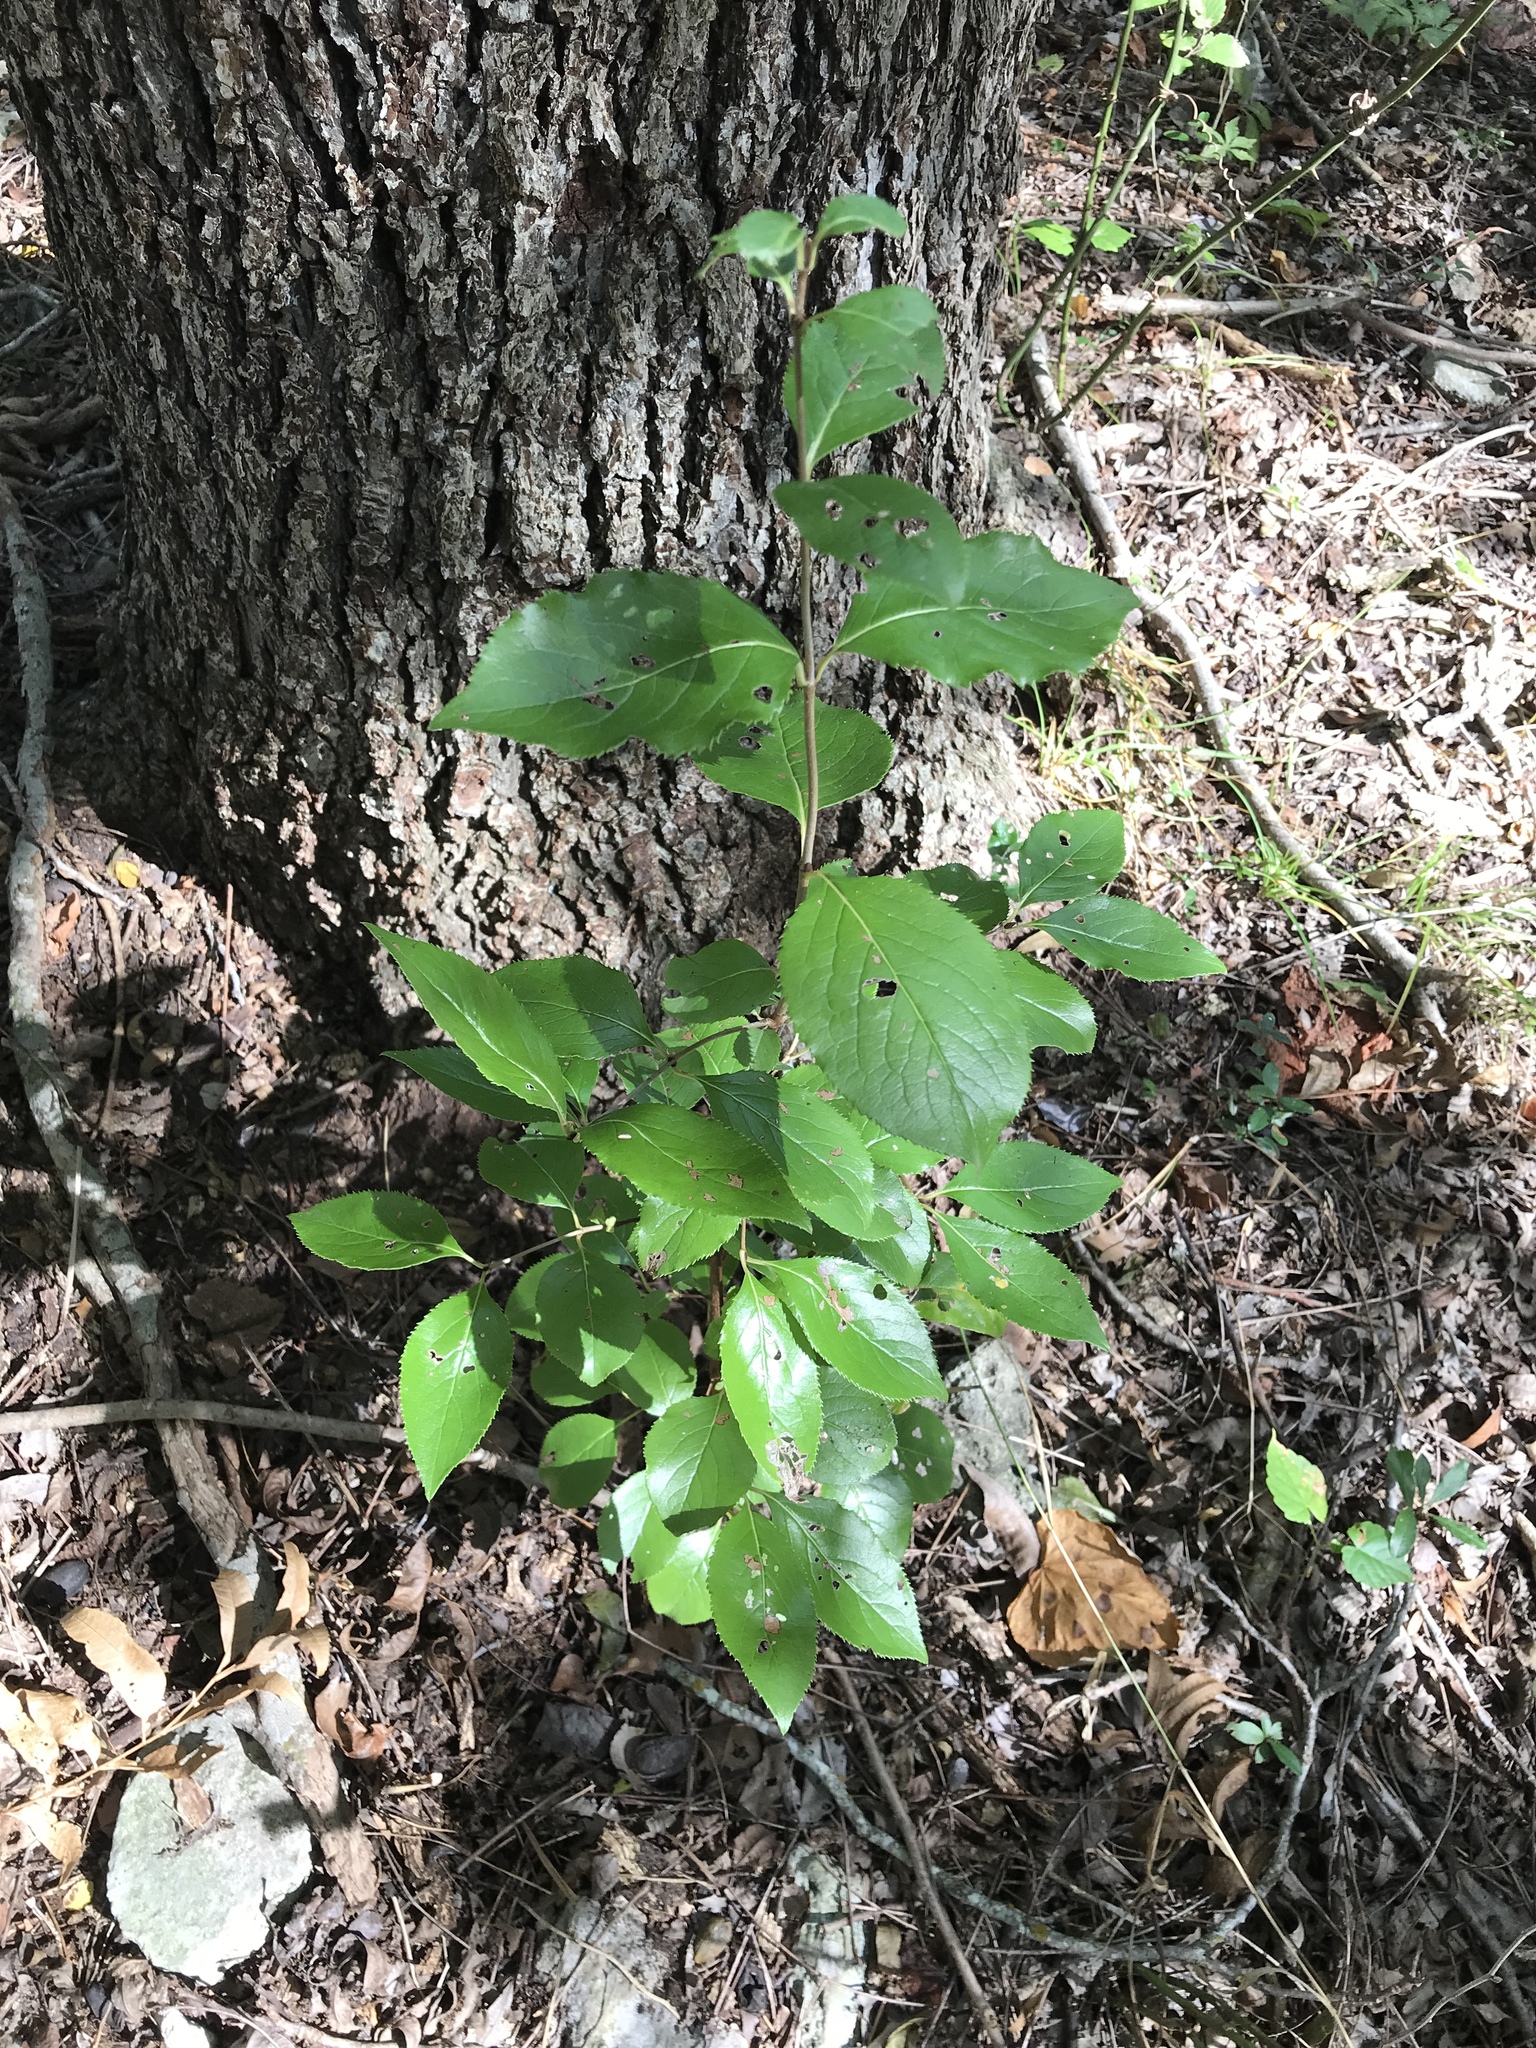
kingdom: Plantae
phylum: Tracheophyta
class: Magnoliopsida
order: Dipsacales
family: Viburnaceae
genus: Viburnum
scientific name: Viburnum rufidulum
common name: Blue haw
